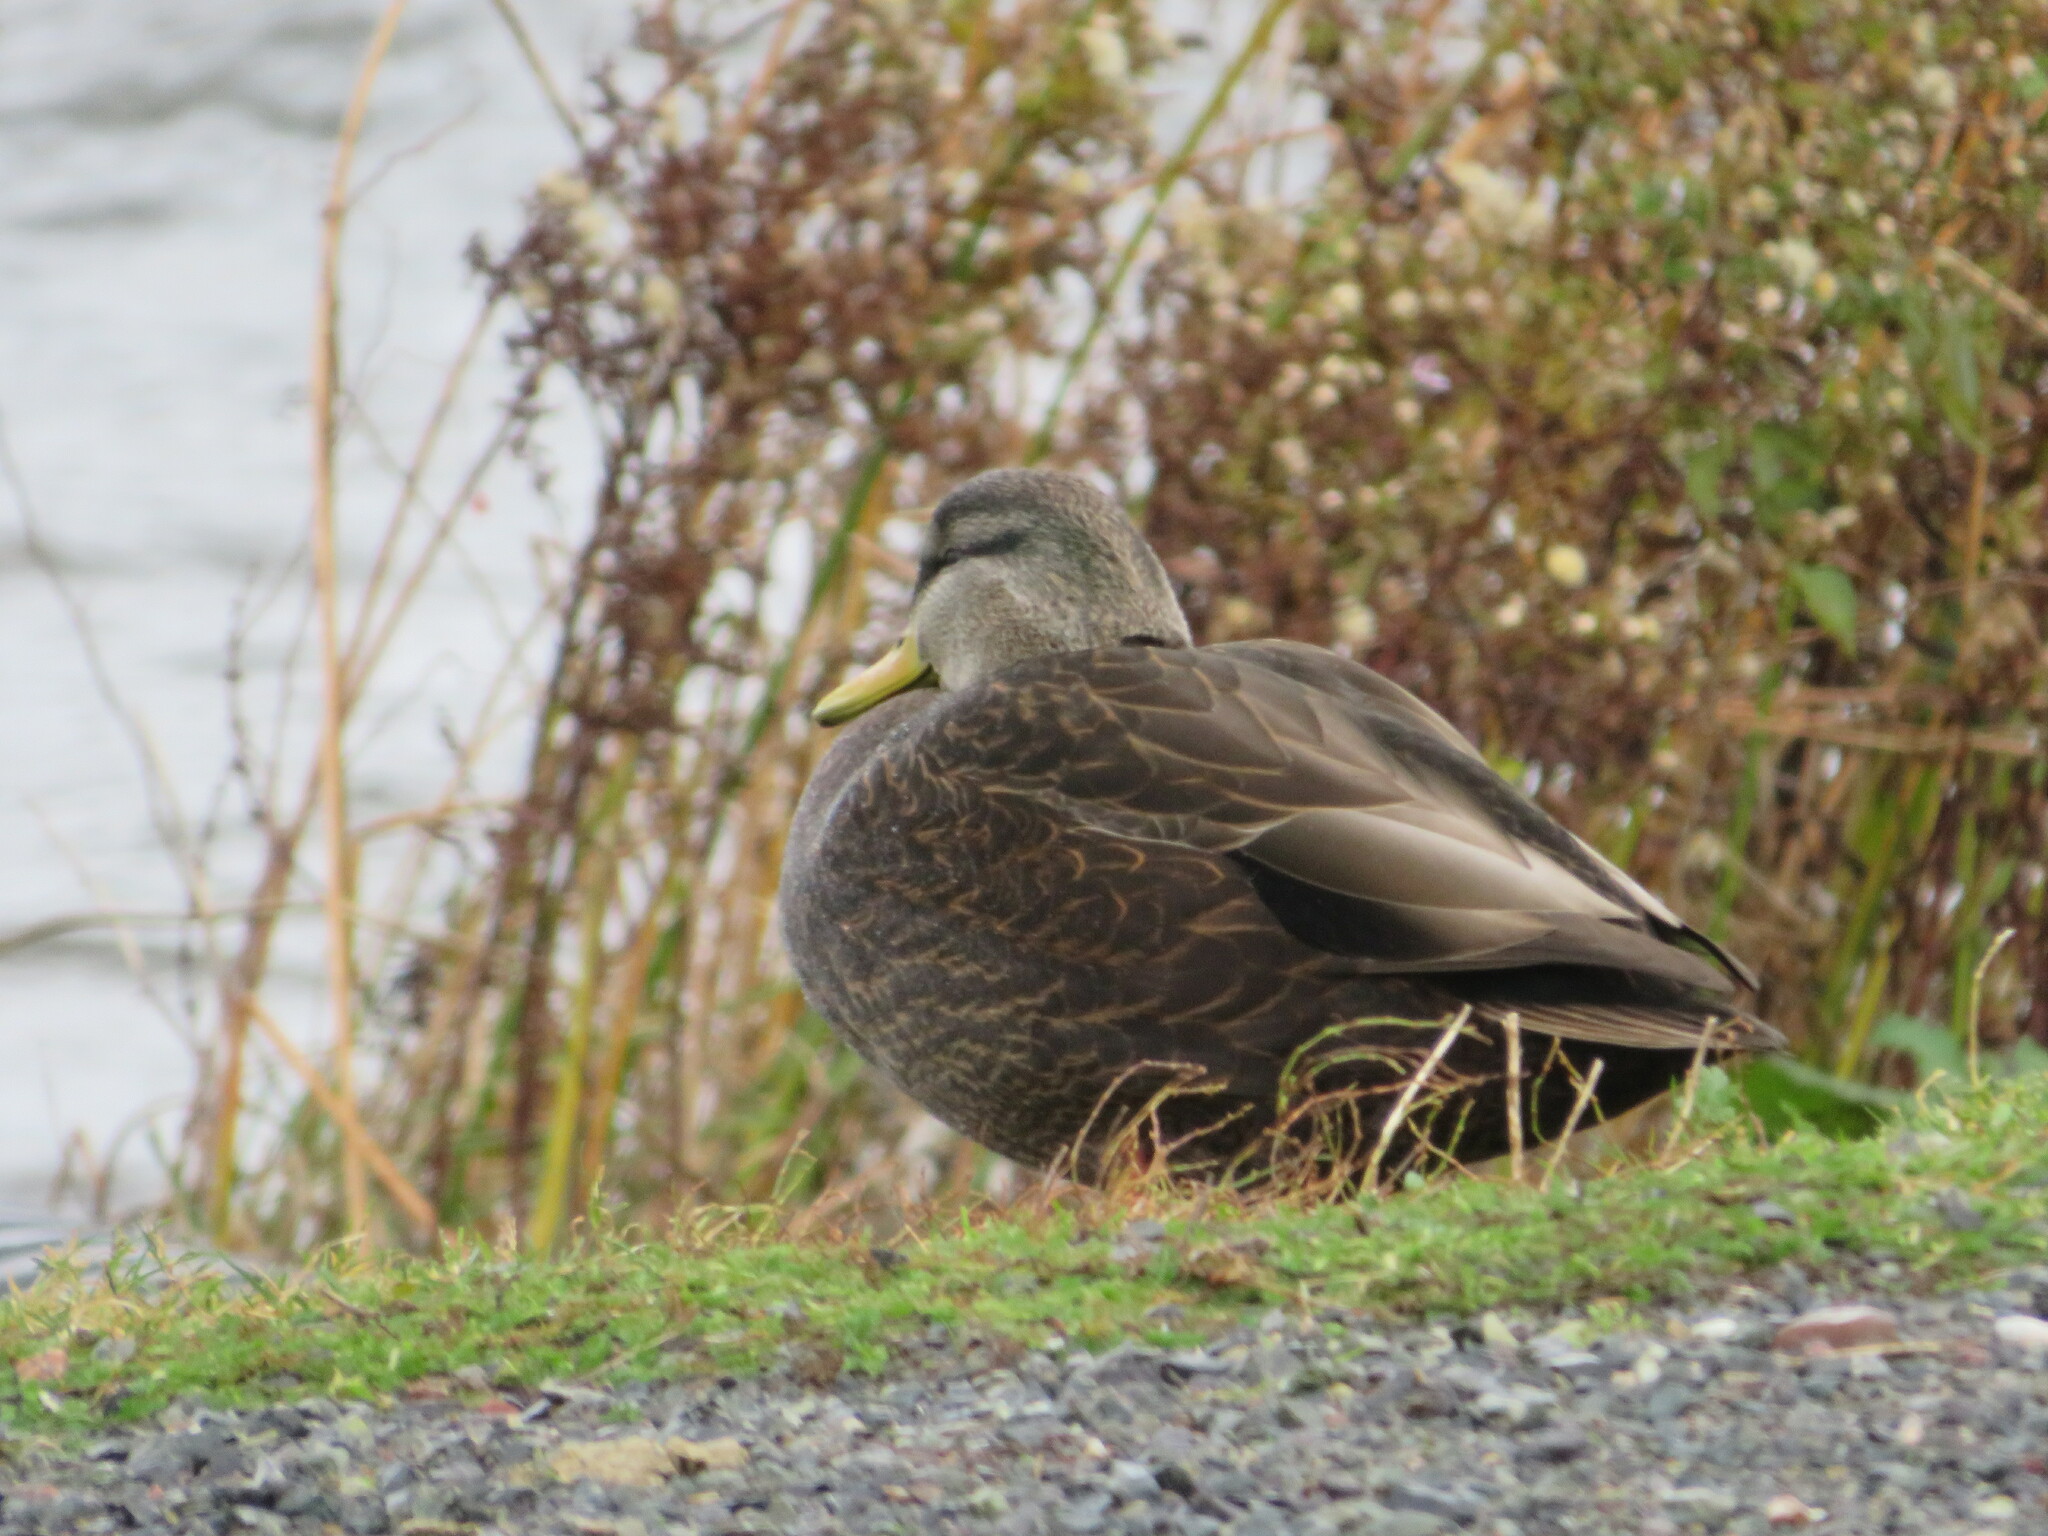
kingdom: Animalia
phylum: Chordata
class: Aves
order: Anseriformes
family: Anatidae
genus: Anas
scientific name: Anas rubripes
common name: American black duck
